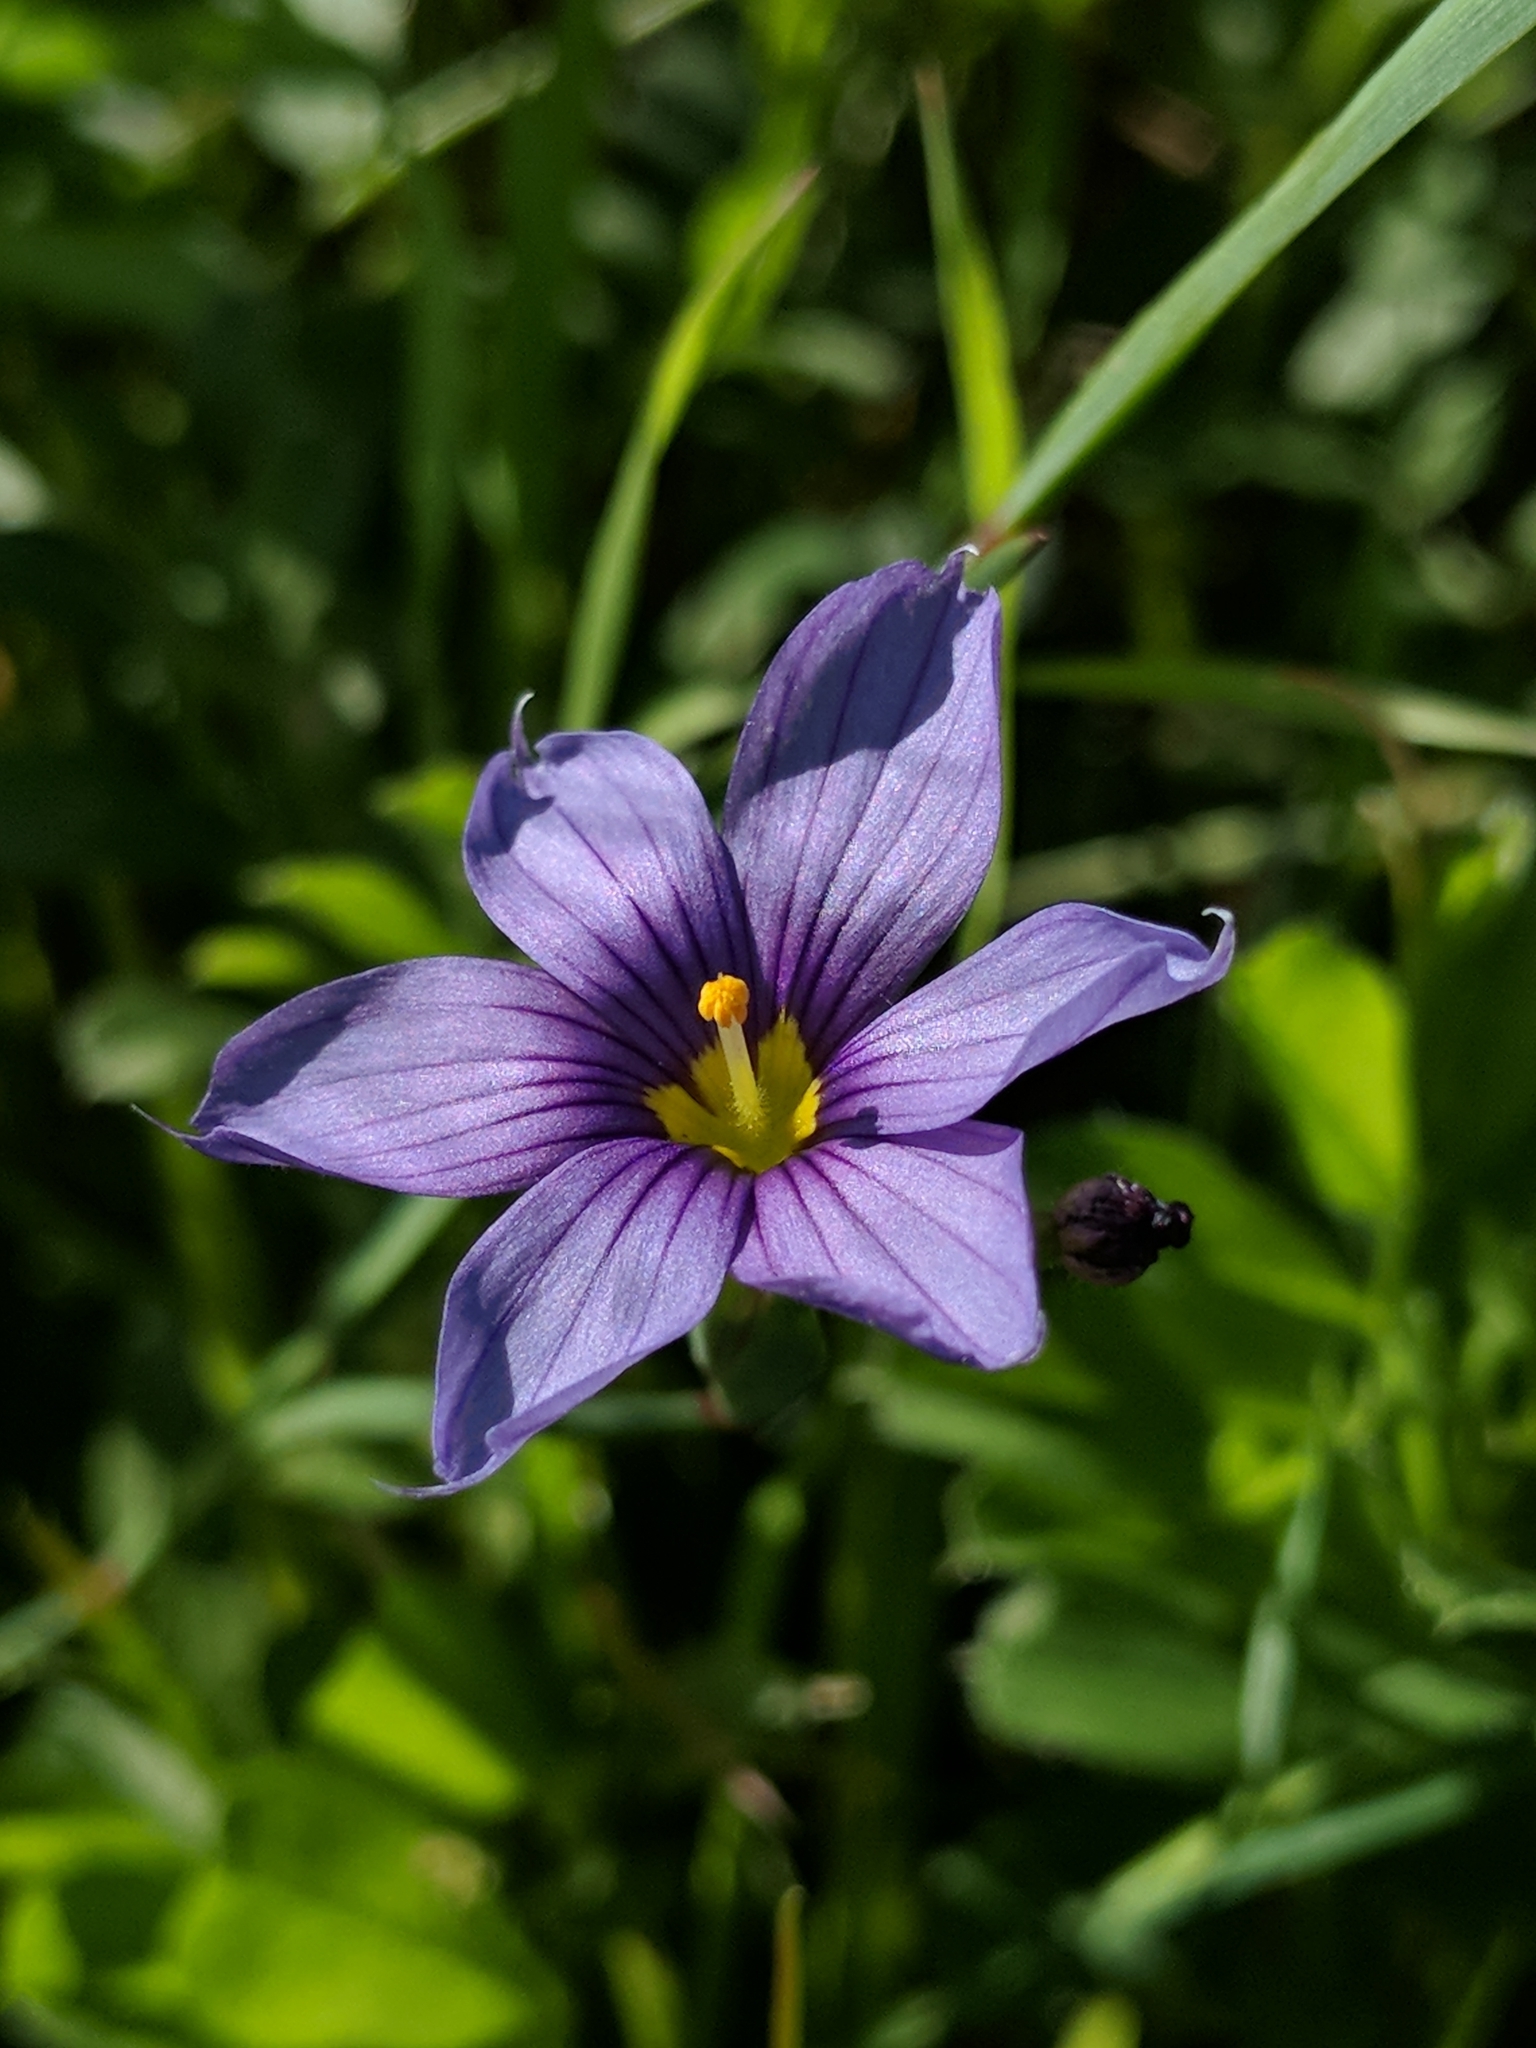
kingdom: Plantae
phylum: Tracheophyta
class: Liliopsida
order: Asparagales
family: Iridaceae
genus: Sisyrinchium
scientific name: Sisyrinchium bellum
